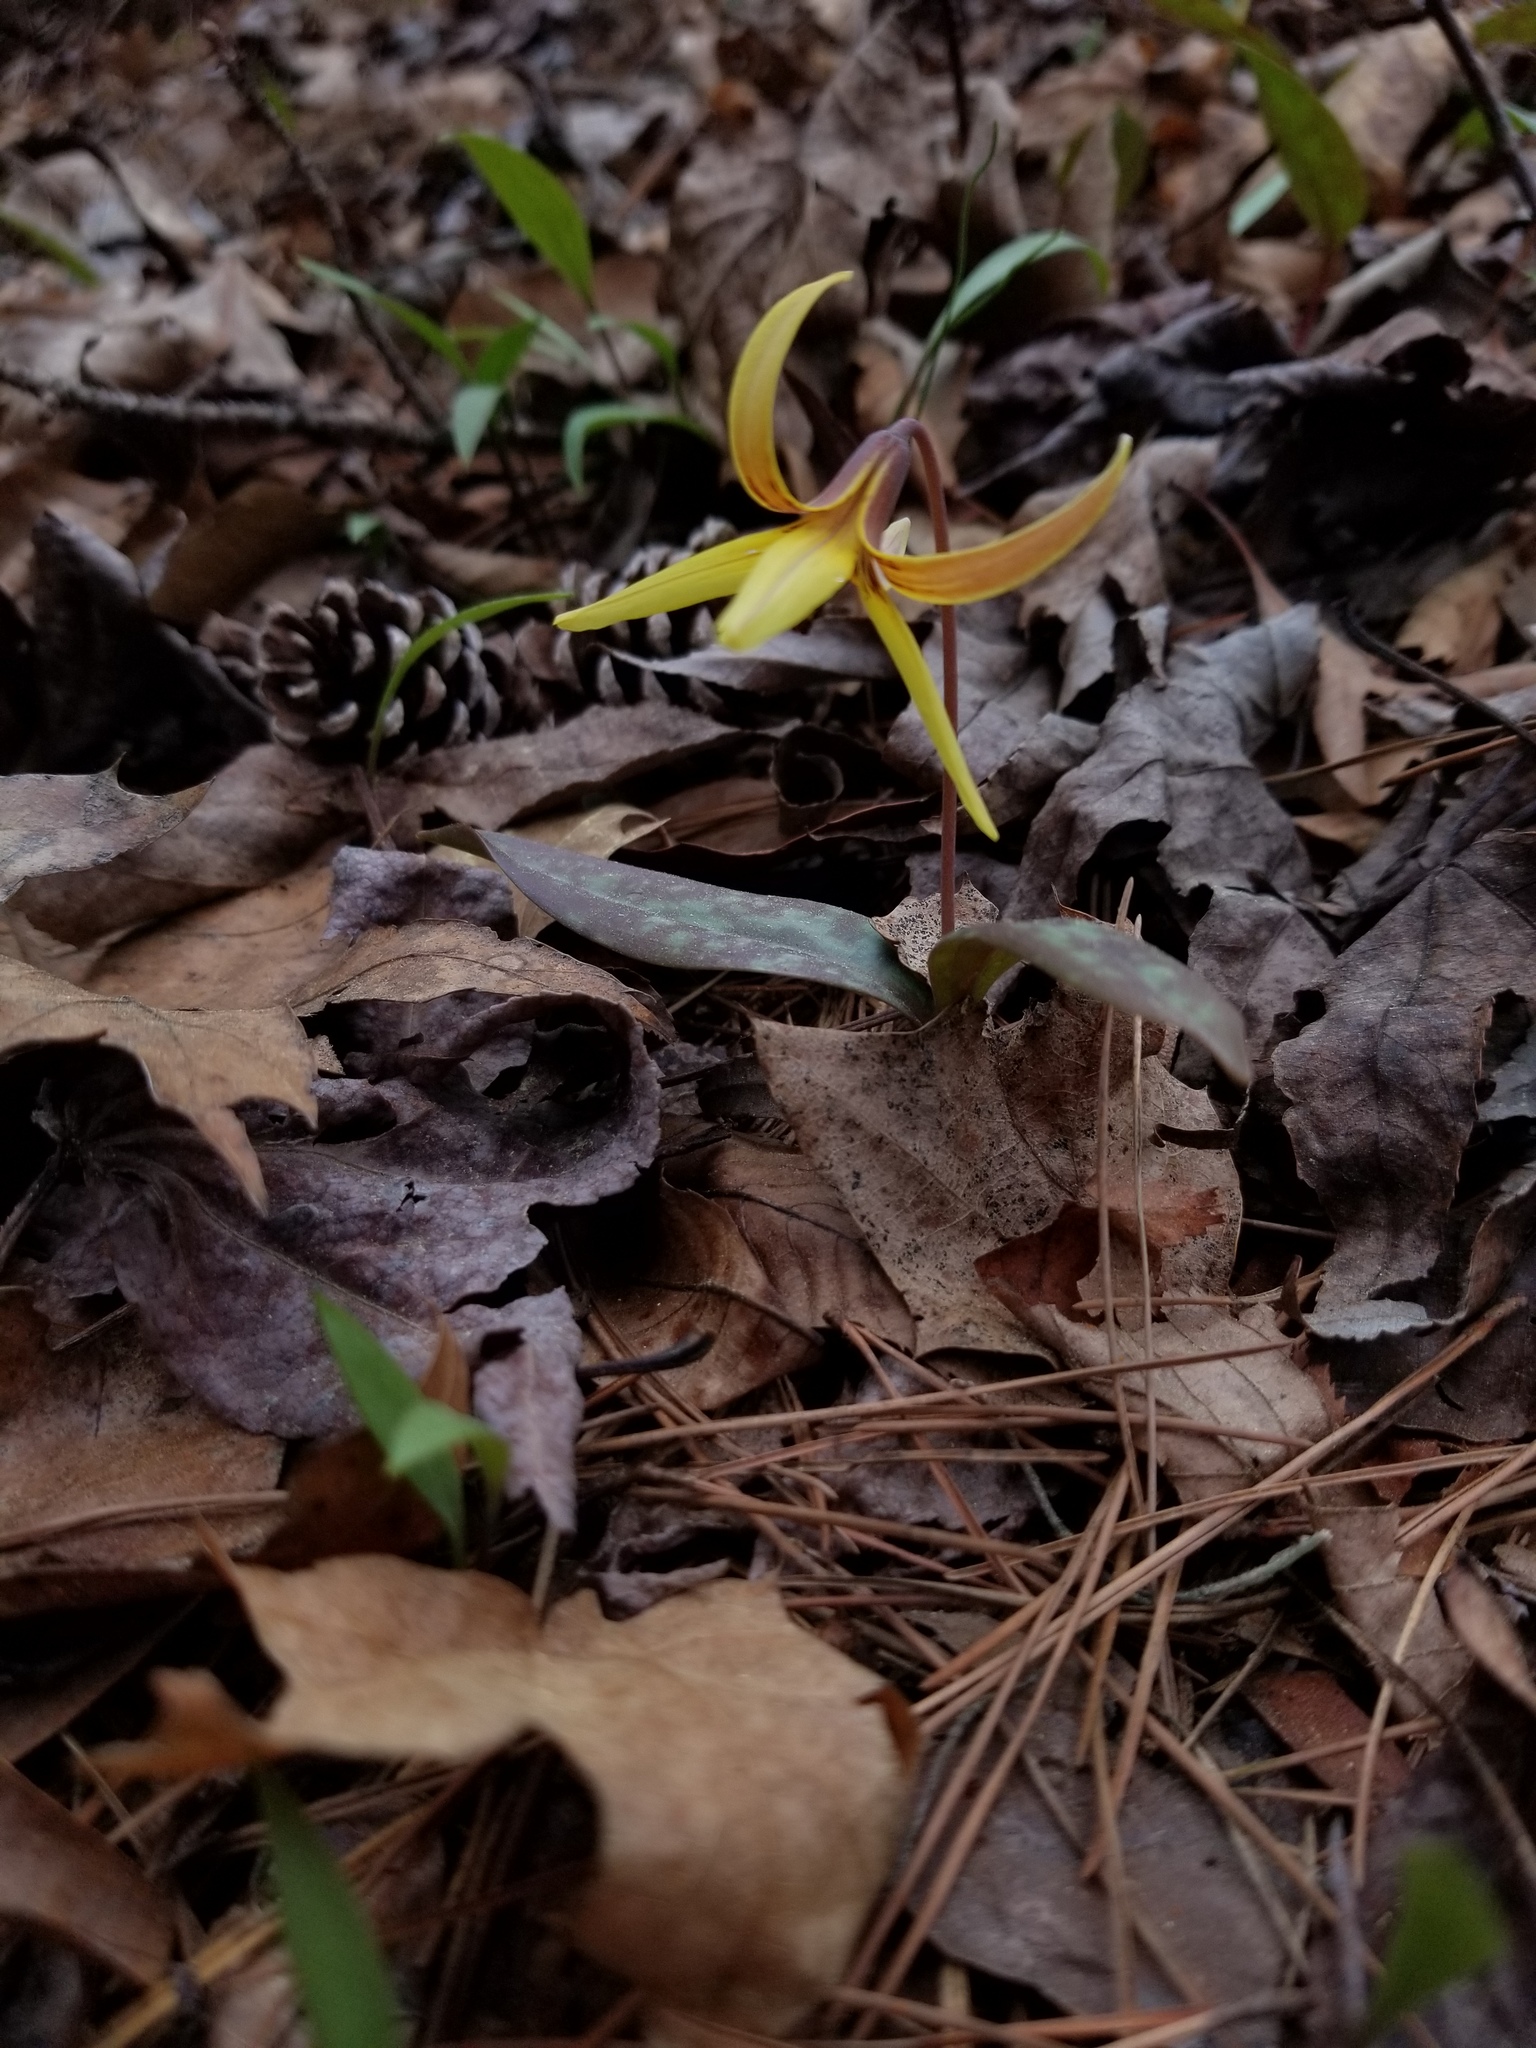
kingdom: Plantae
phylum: Tracheophyta
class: Liliopsida
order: Liliales
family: Liliaceae
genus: Erythronium
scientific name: Erythronium umbilicatum
